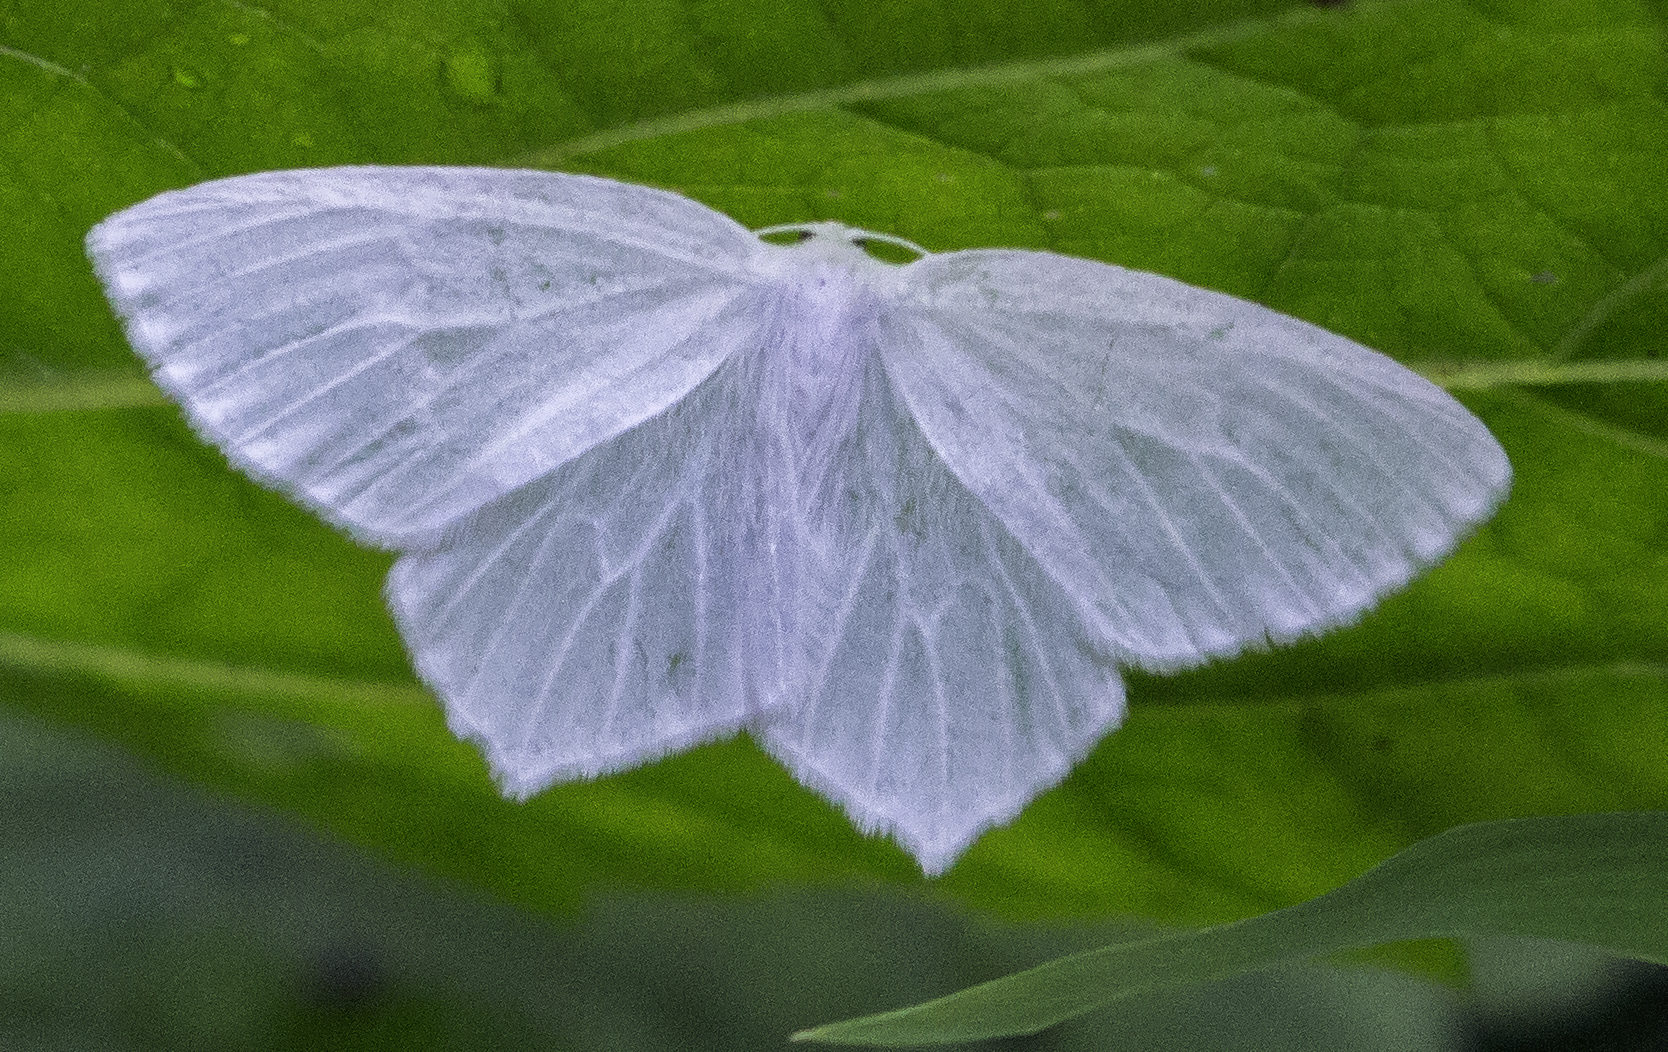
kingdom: Animalia
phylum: Arthropoda
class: Insecta
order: Lepidoptera
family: Geometridae
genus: Eugonobapta
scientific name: Eugonobapta nivosaria
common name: Snowy geometer
